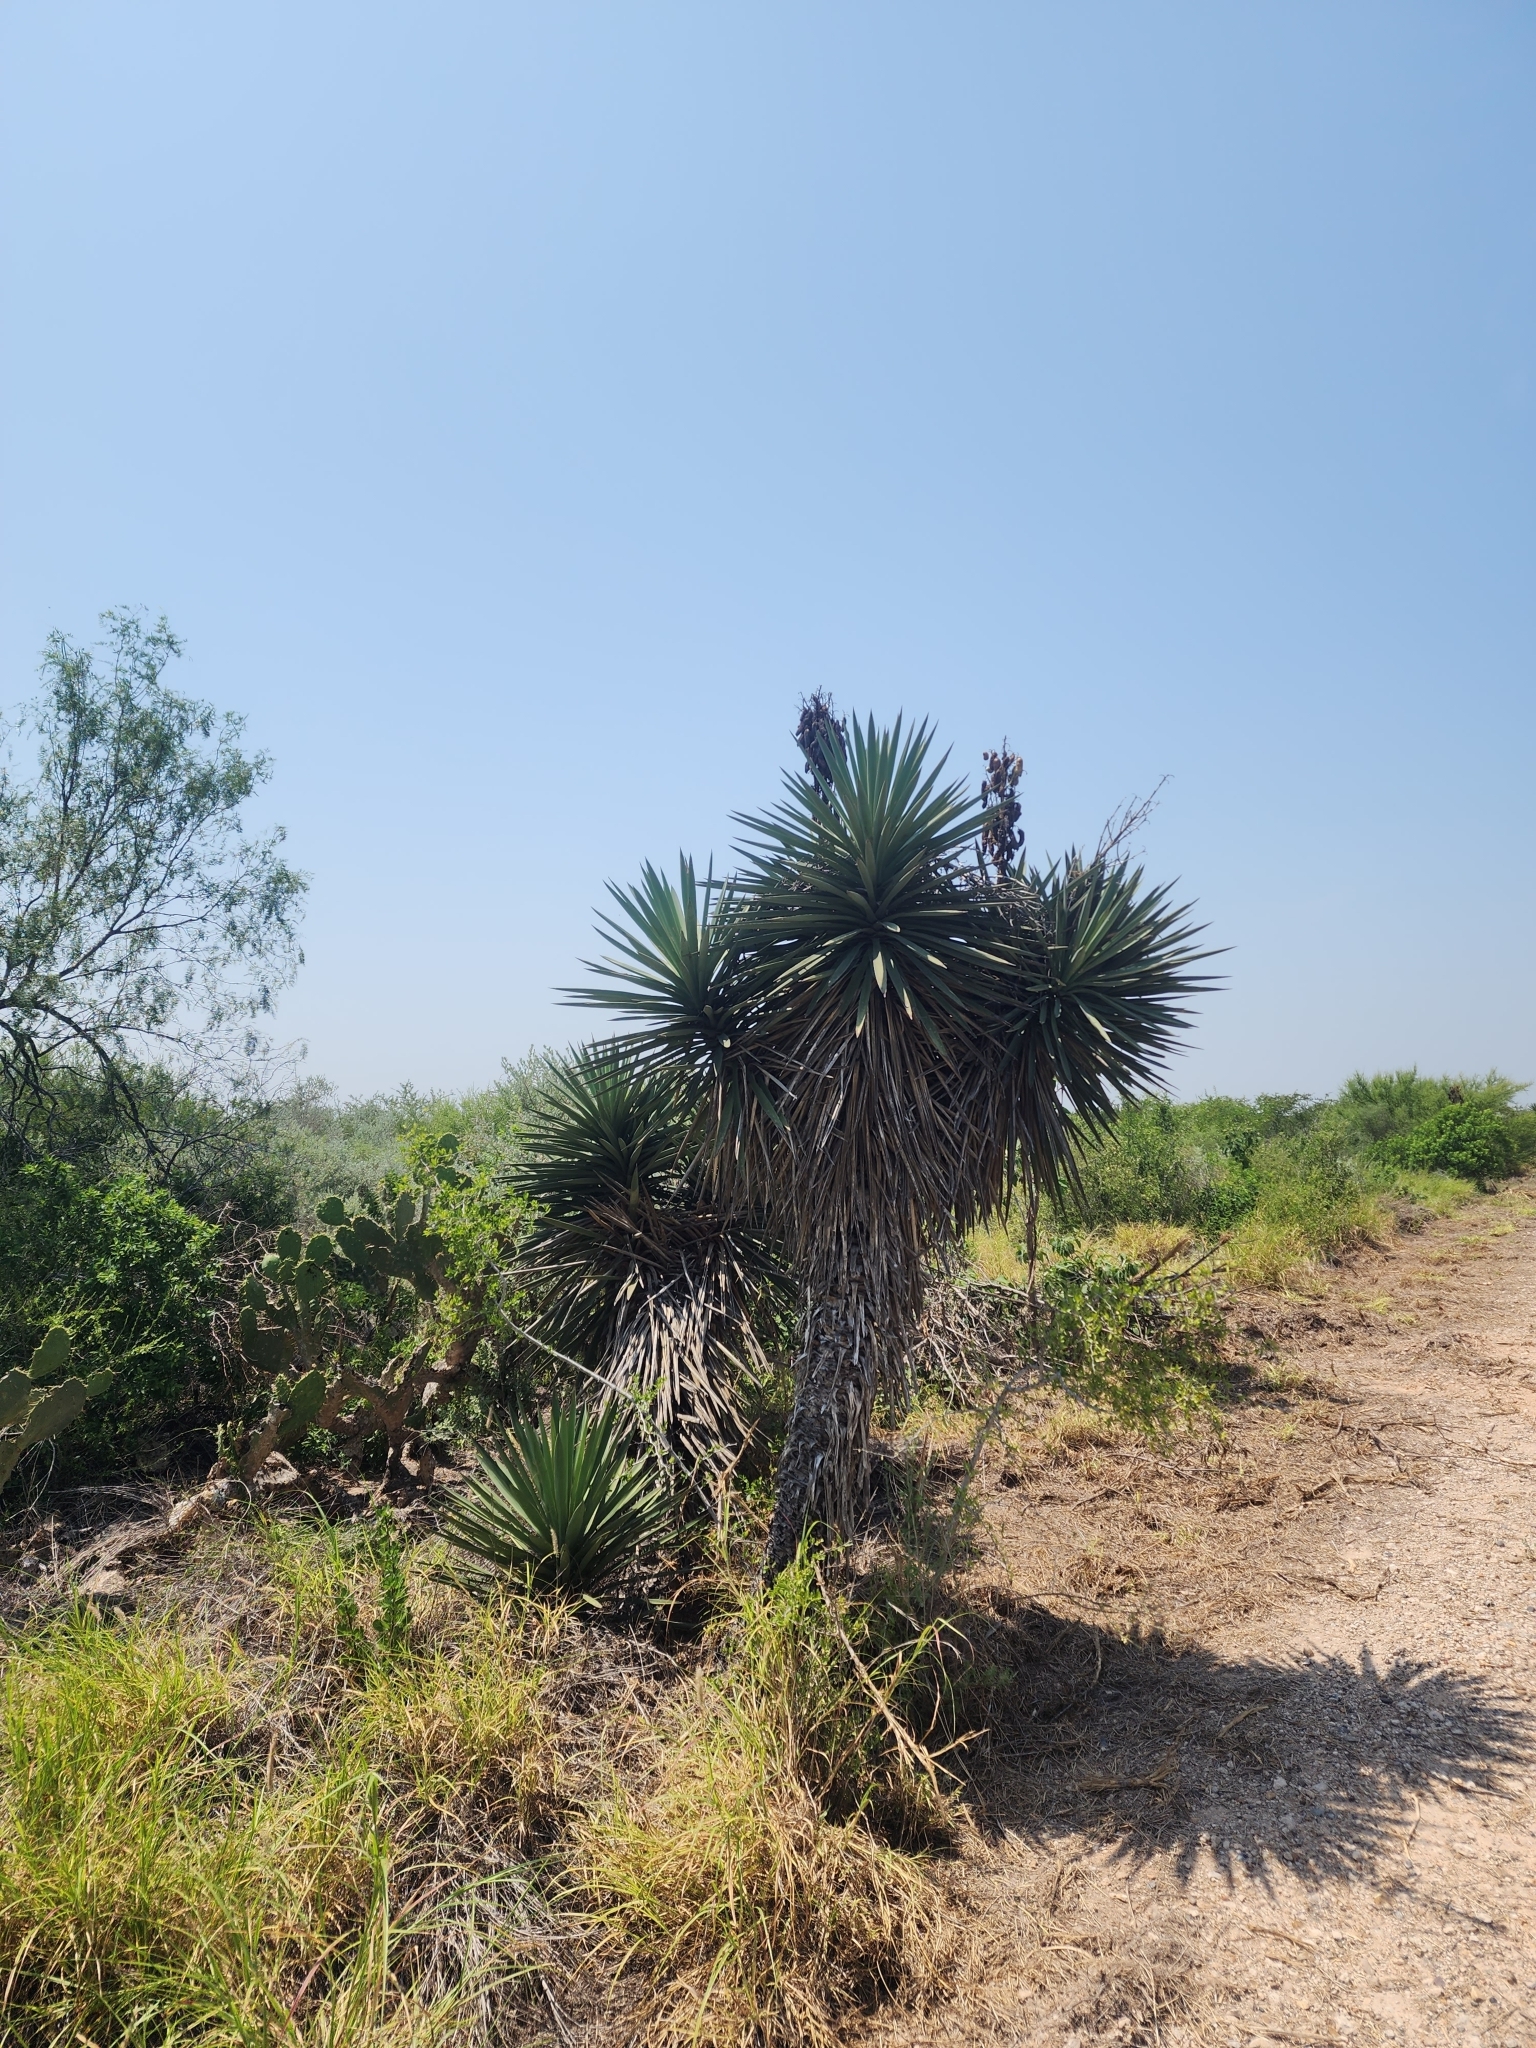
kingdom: Plantae
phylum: Tracheophyta
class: Liliopsida
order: Asparagales
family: Asparagaceae
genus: Yucca
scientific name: Yucca treculiana
